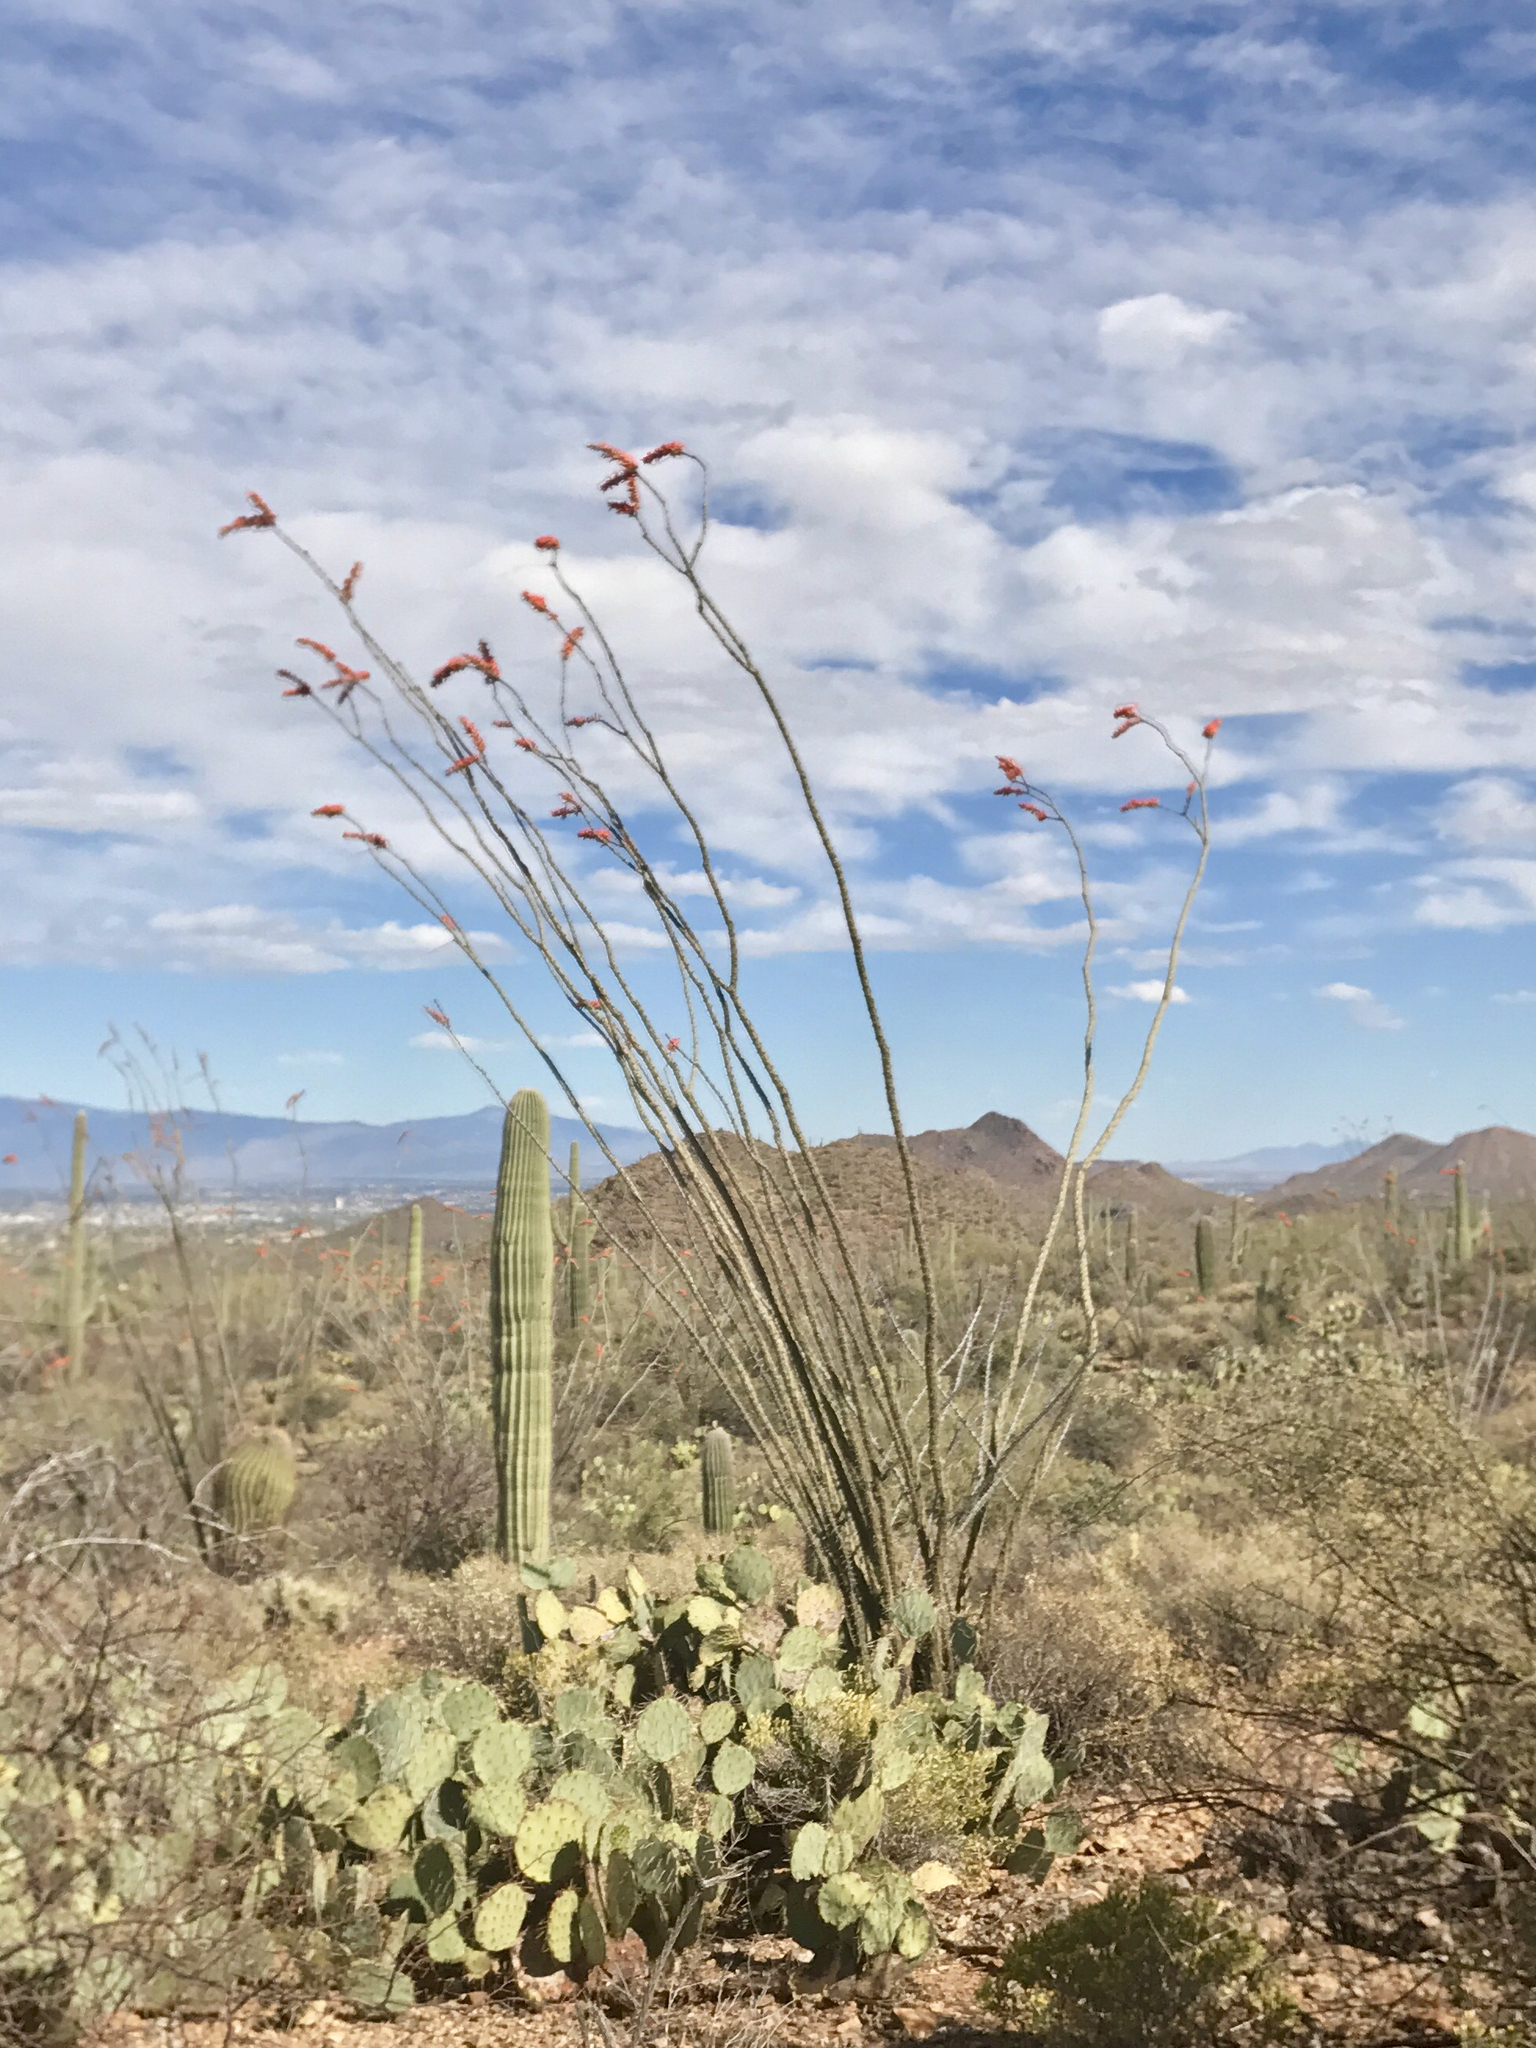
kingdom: Plantae
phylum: Tracheophyta
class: Magnoliopsida
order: Ericales
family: Fouquieriaceae
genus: Fouquieria
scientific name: Fouquieria splendens
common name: Vine-cactus
